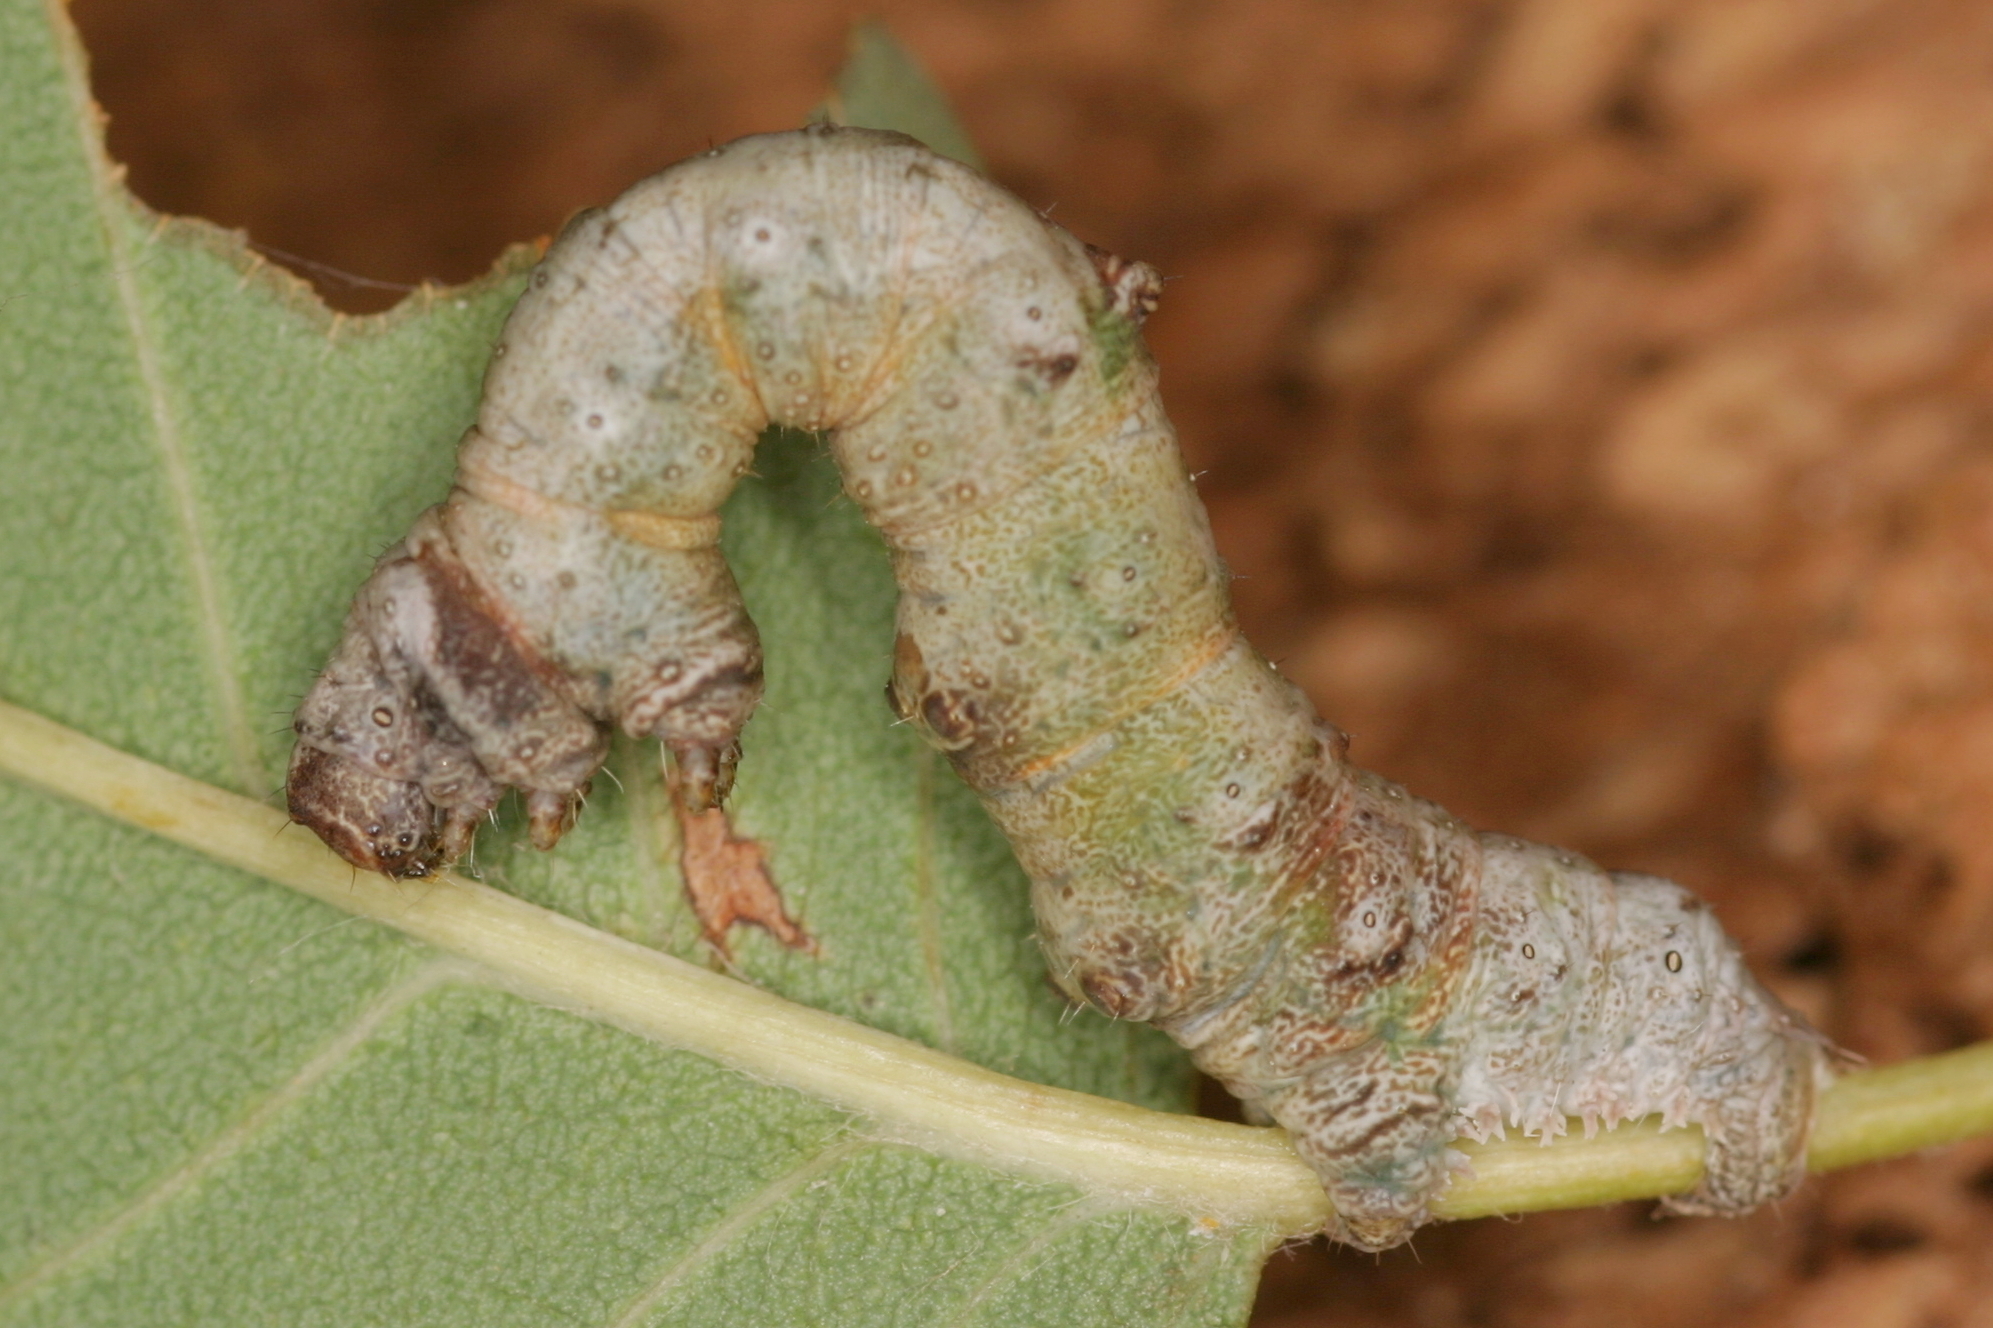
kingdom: Animalia
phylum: Arthropoda
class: Insecta
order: Lepidoptera
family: Geometridae
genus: Opisthograptis
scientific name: Opisthograptis luteolata
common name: Brimstone moth
